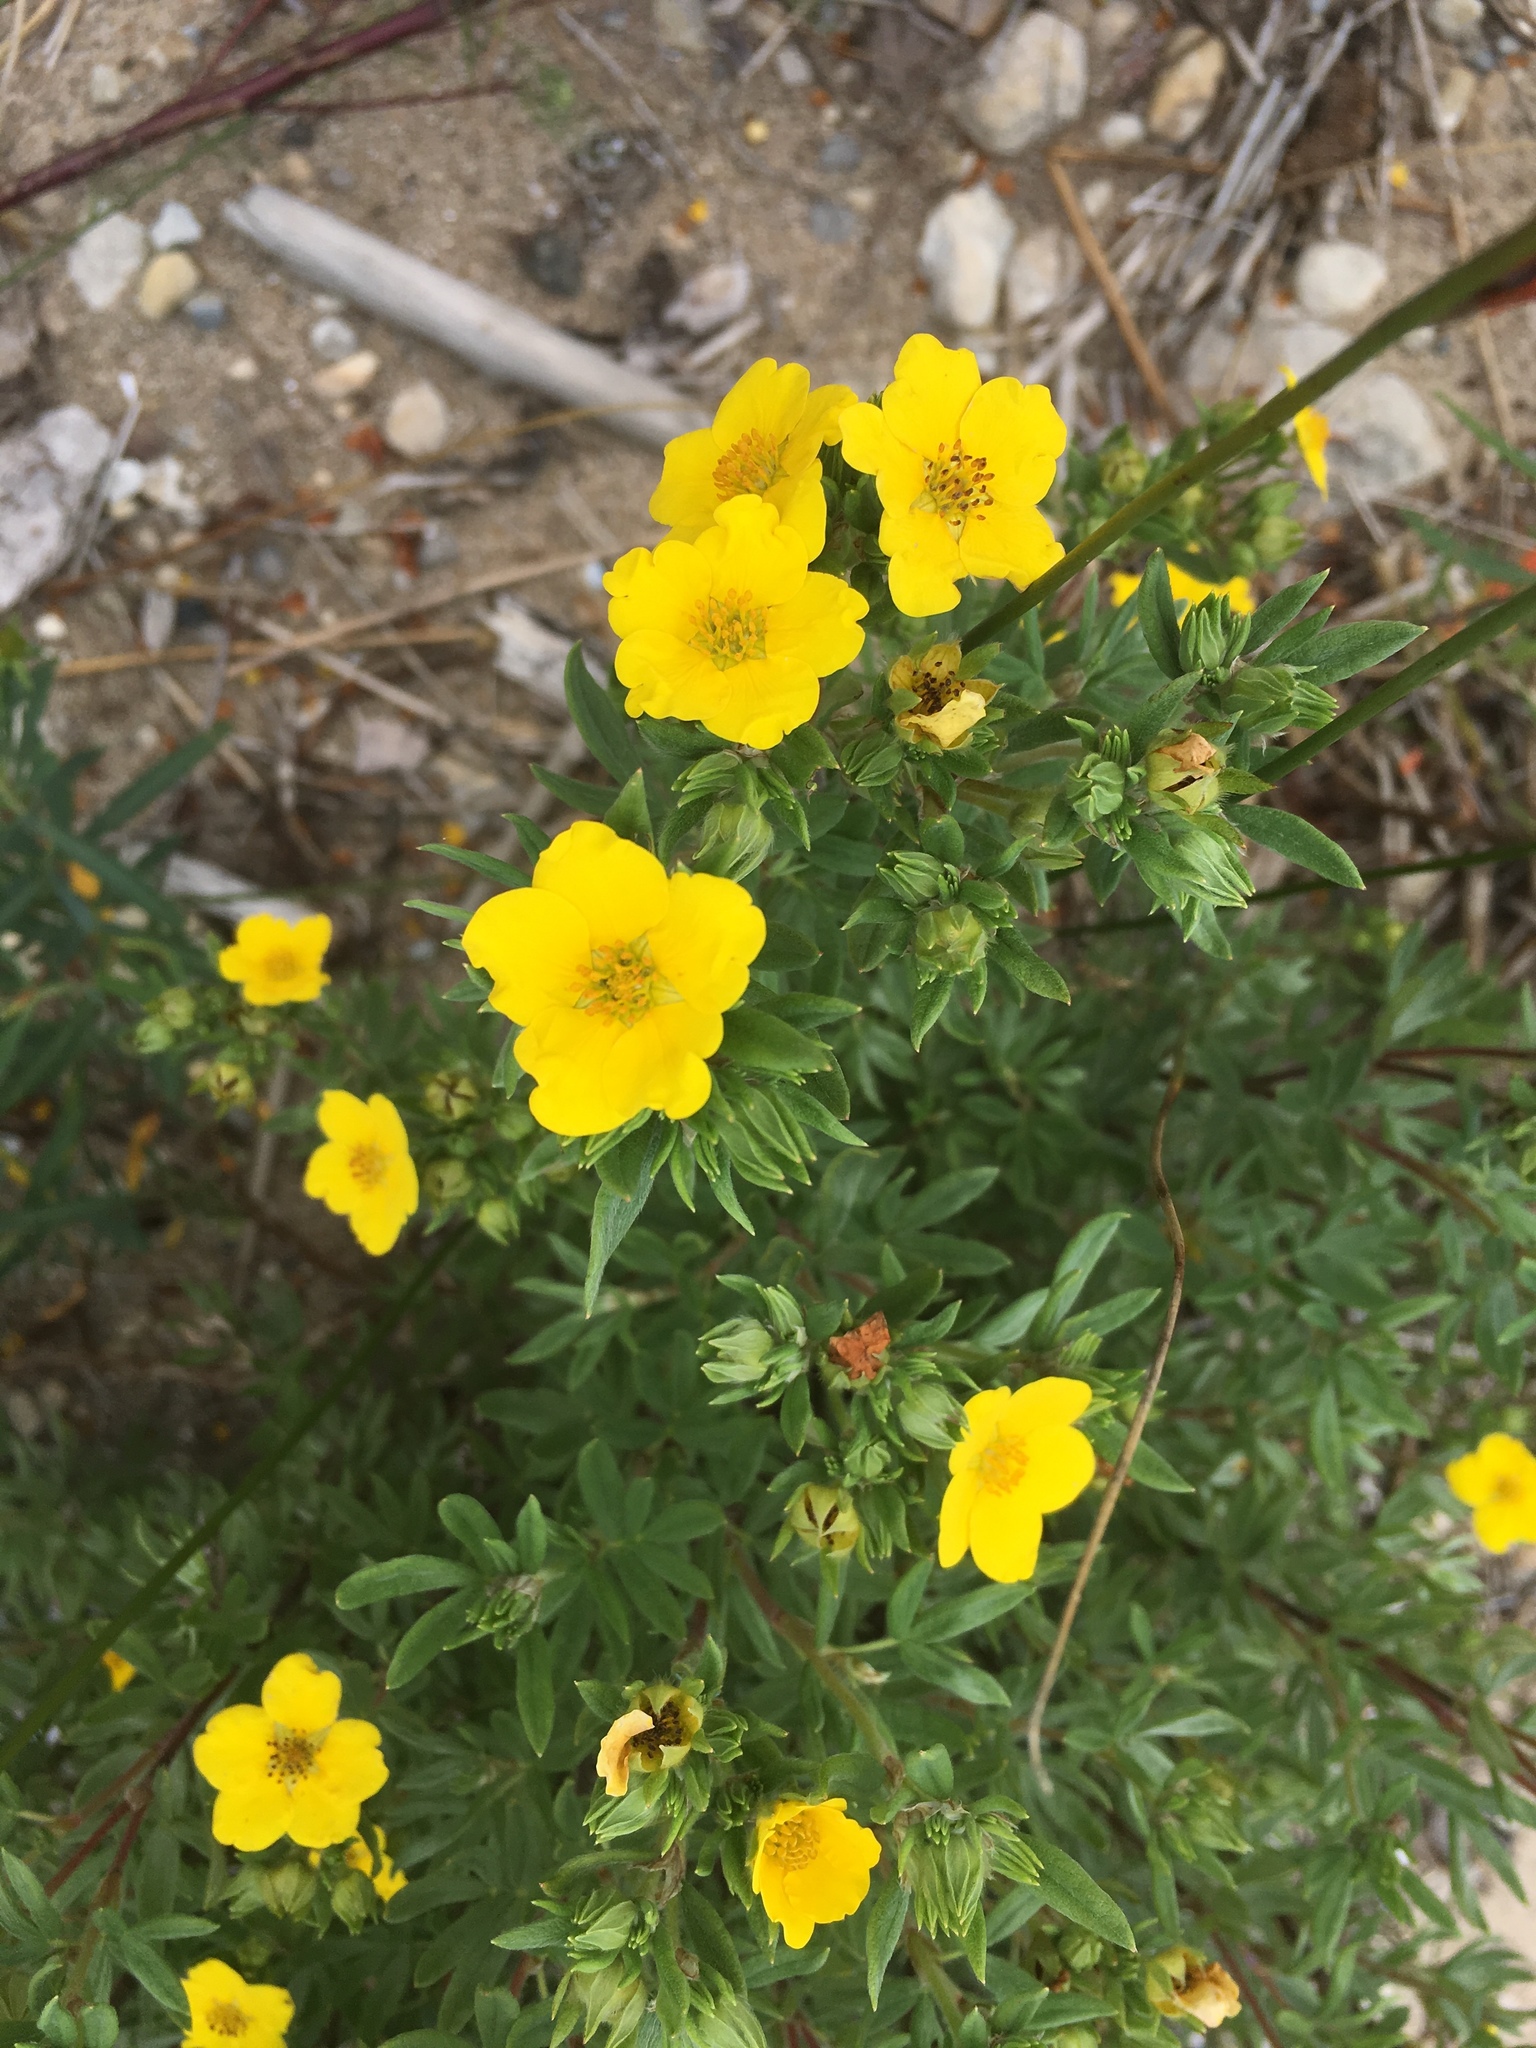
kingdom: Plantae
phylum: Tracheophyta
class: Magnoliopsida
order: Rosales
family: Rosaceae
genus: Dasiphora
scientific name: Dasiphora fruticosa
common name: Shrubby cinquefoil
